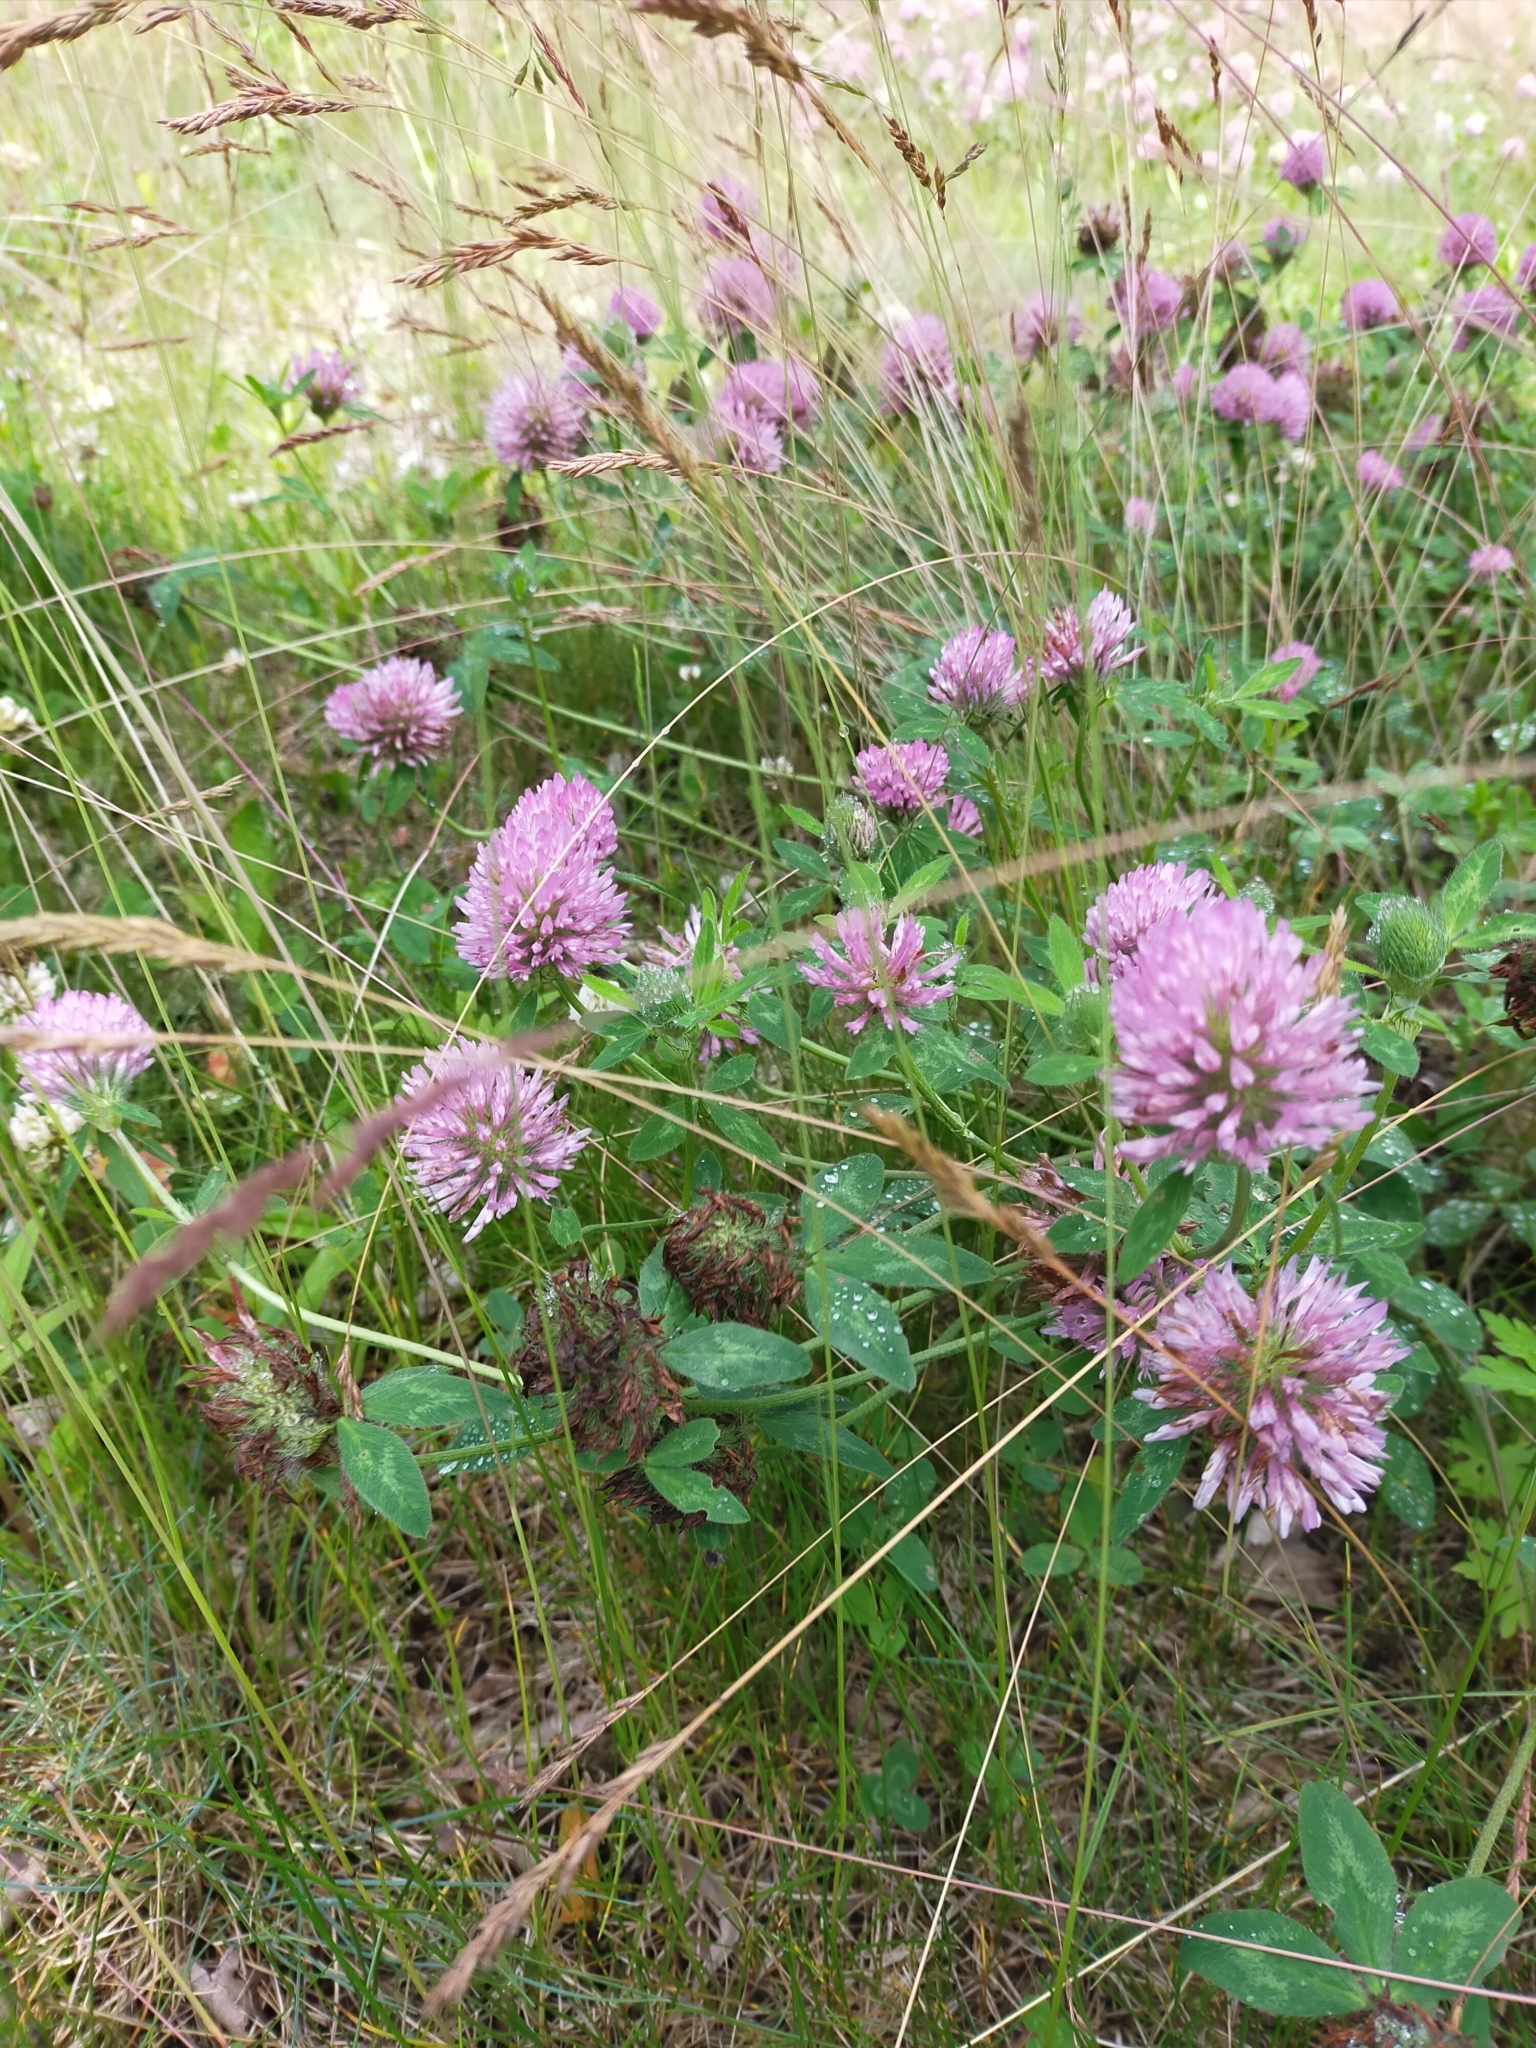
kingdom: Plantae
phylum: Tracheophyta
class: Magnoliopsida
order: Fabales
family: Fabaceae
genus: Trifolium
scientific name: Trifolium pratense
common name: Red clover
